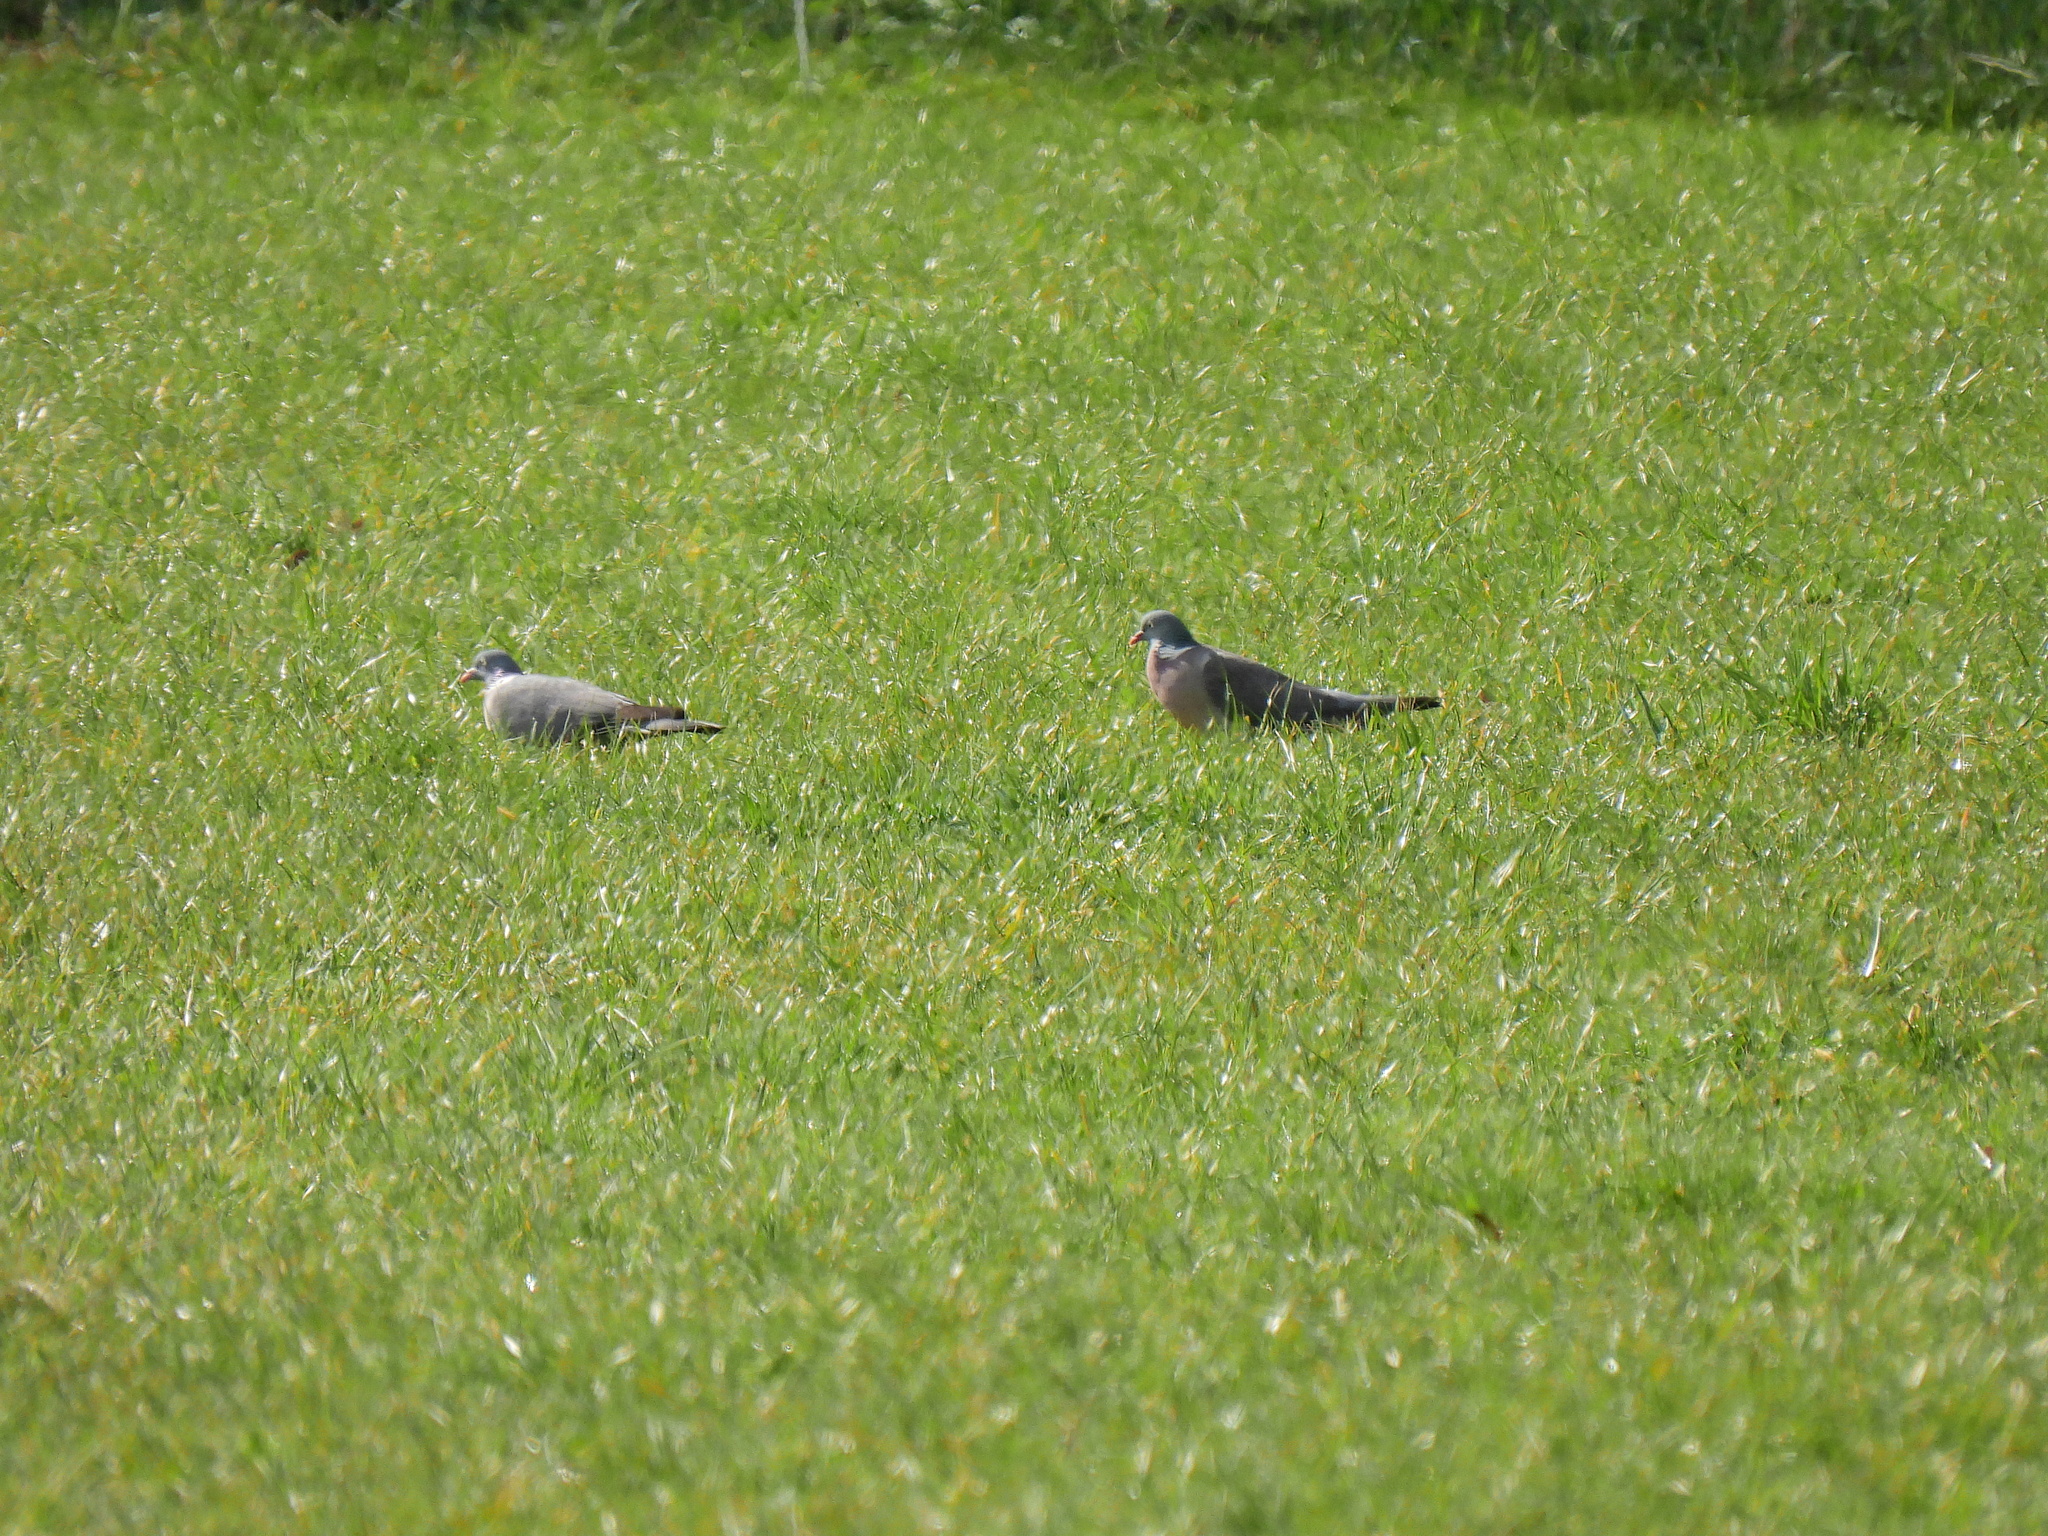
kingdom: Animalia
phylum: Chordata
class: Aves
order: Columbiformes
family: Columbidae
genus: Columba
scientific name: Columba palumbus
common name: Common wood pigeon
